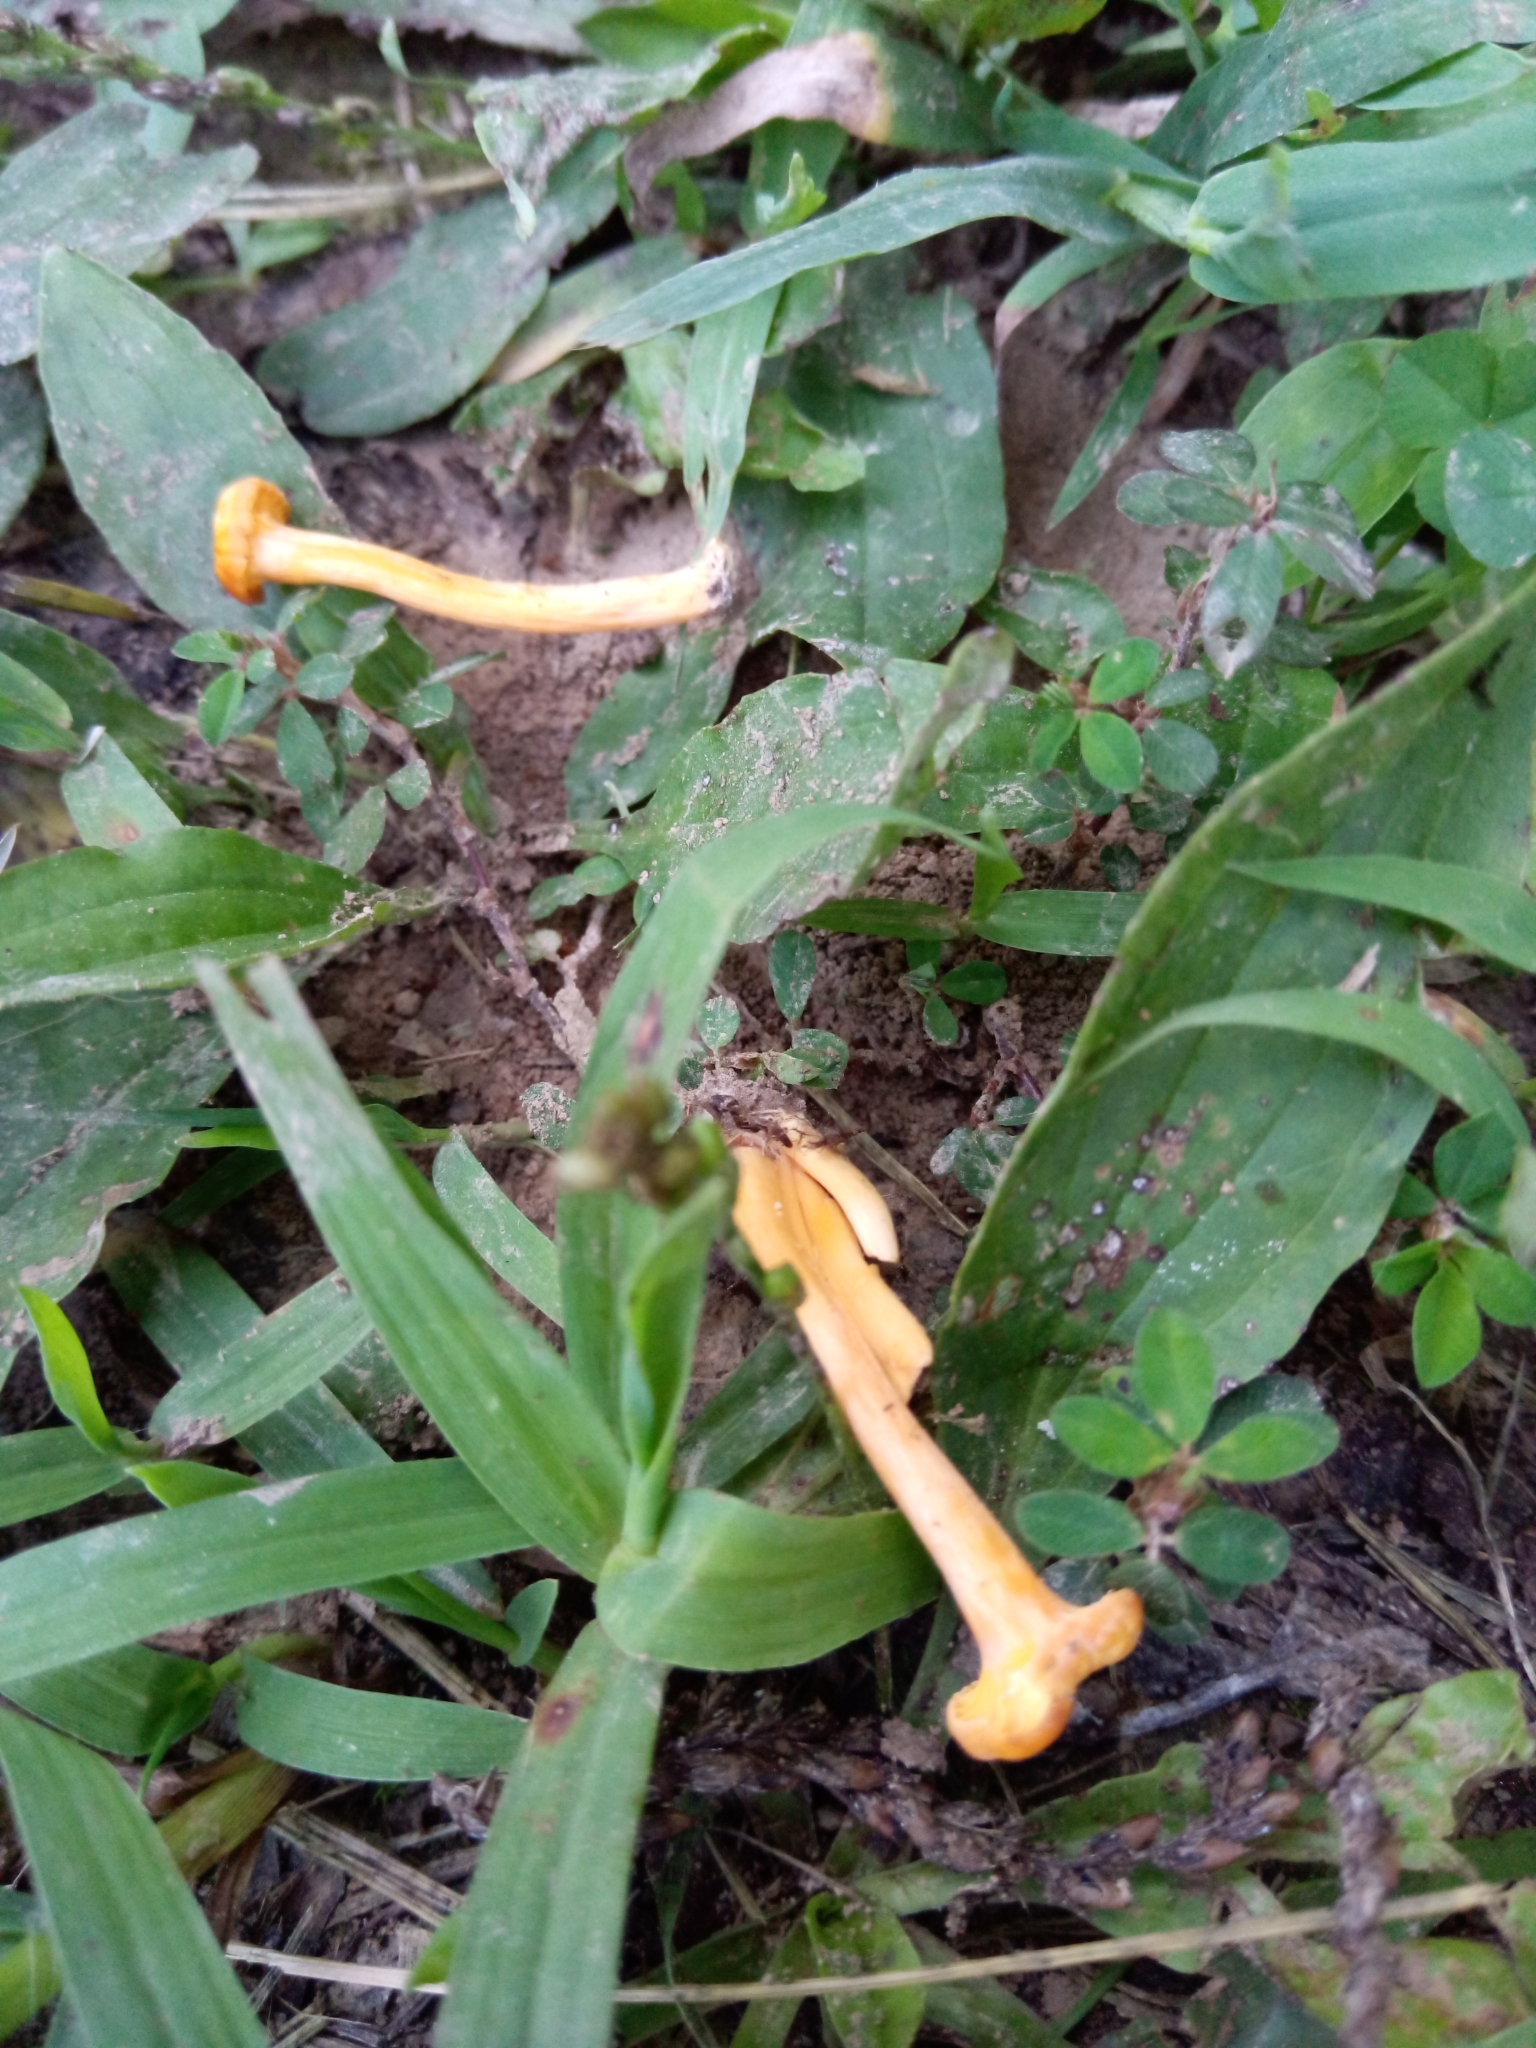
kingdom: Fungi
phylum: Basidiomycota
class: Agaricomycetes
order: Cantharellales
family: Hydnaceae
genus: Cantharellus
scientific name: Cantharellus minor
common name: Small chanterelle
